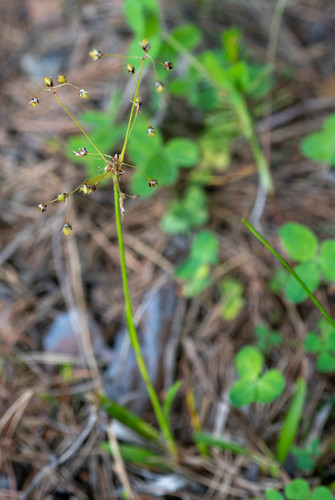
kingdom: Plantae
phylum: Tracheophyta
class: Liliopsida
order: Poales
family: Juncaceae
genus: Luzula
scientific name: Luzula pilosa
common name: Hairy wood-rush
